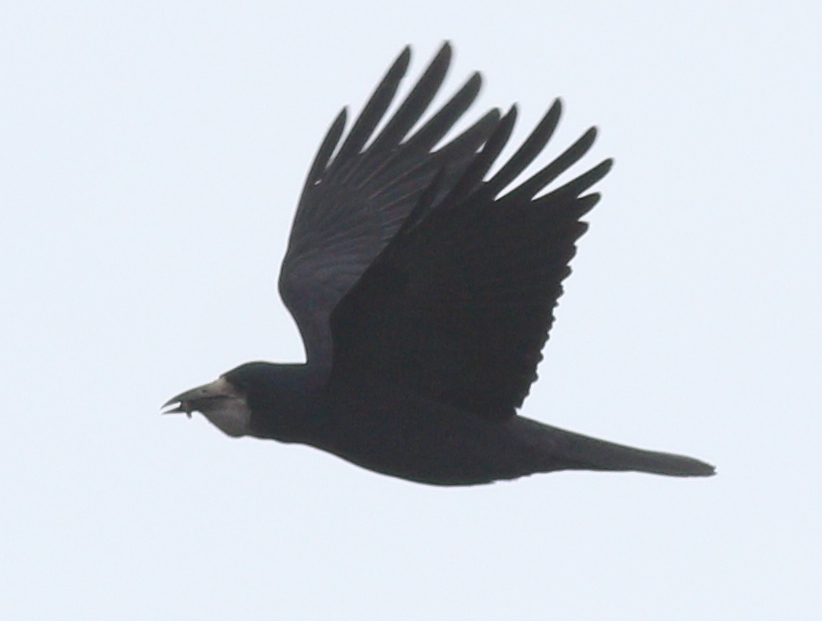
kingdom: Animalia
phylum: Chordata
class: Aves
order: Passeriformes
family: Corvidae
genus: Corvus
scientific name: Corvus frugilegus
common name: Rook
